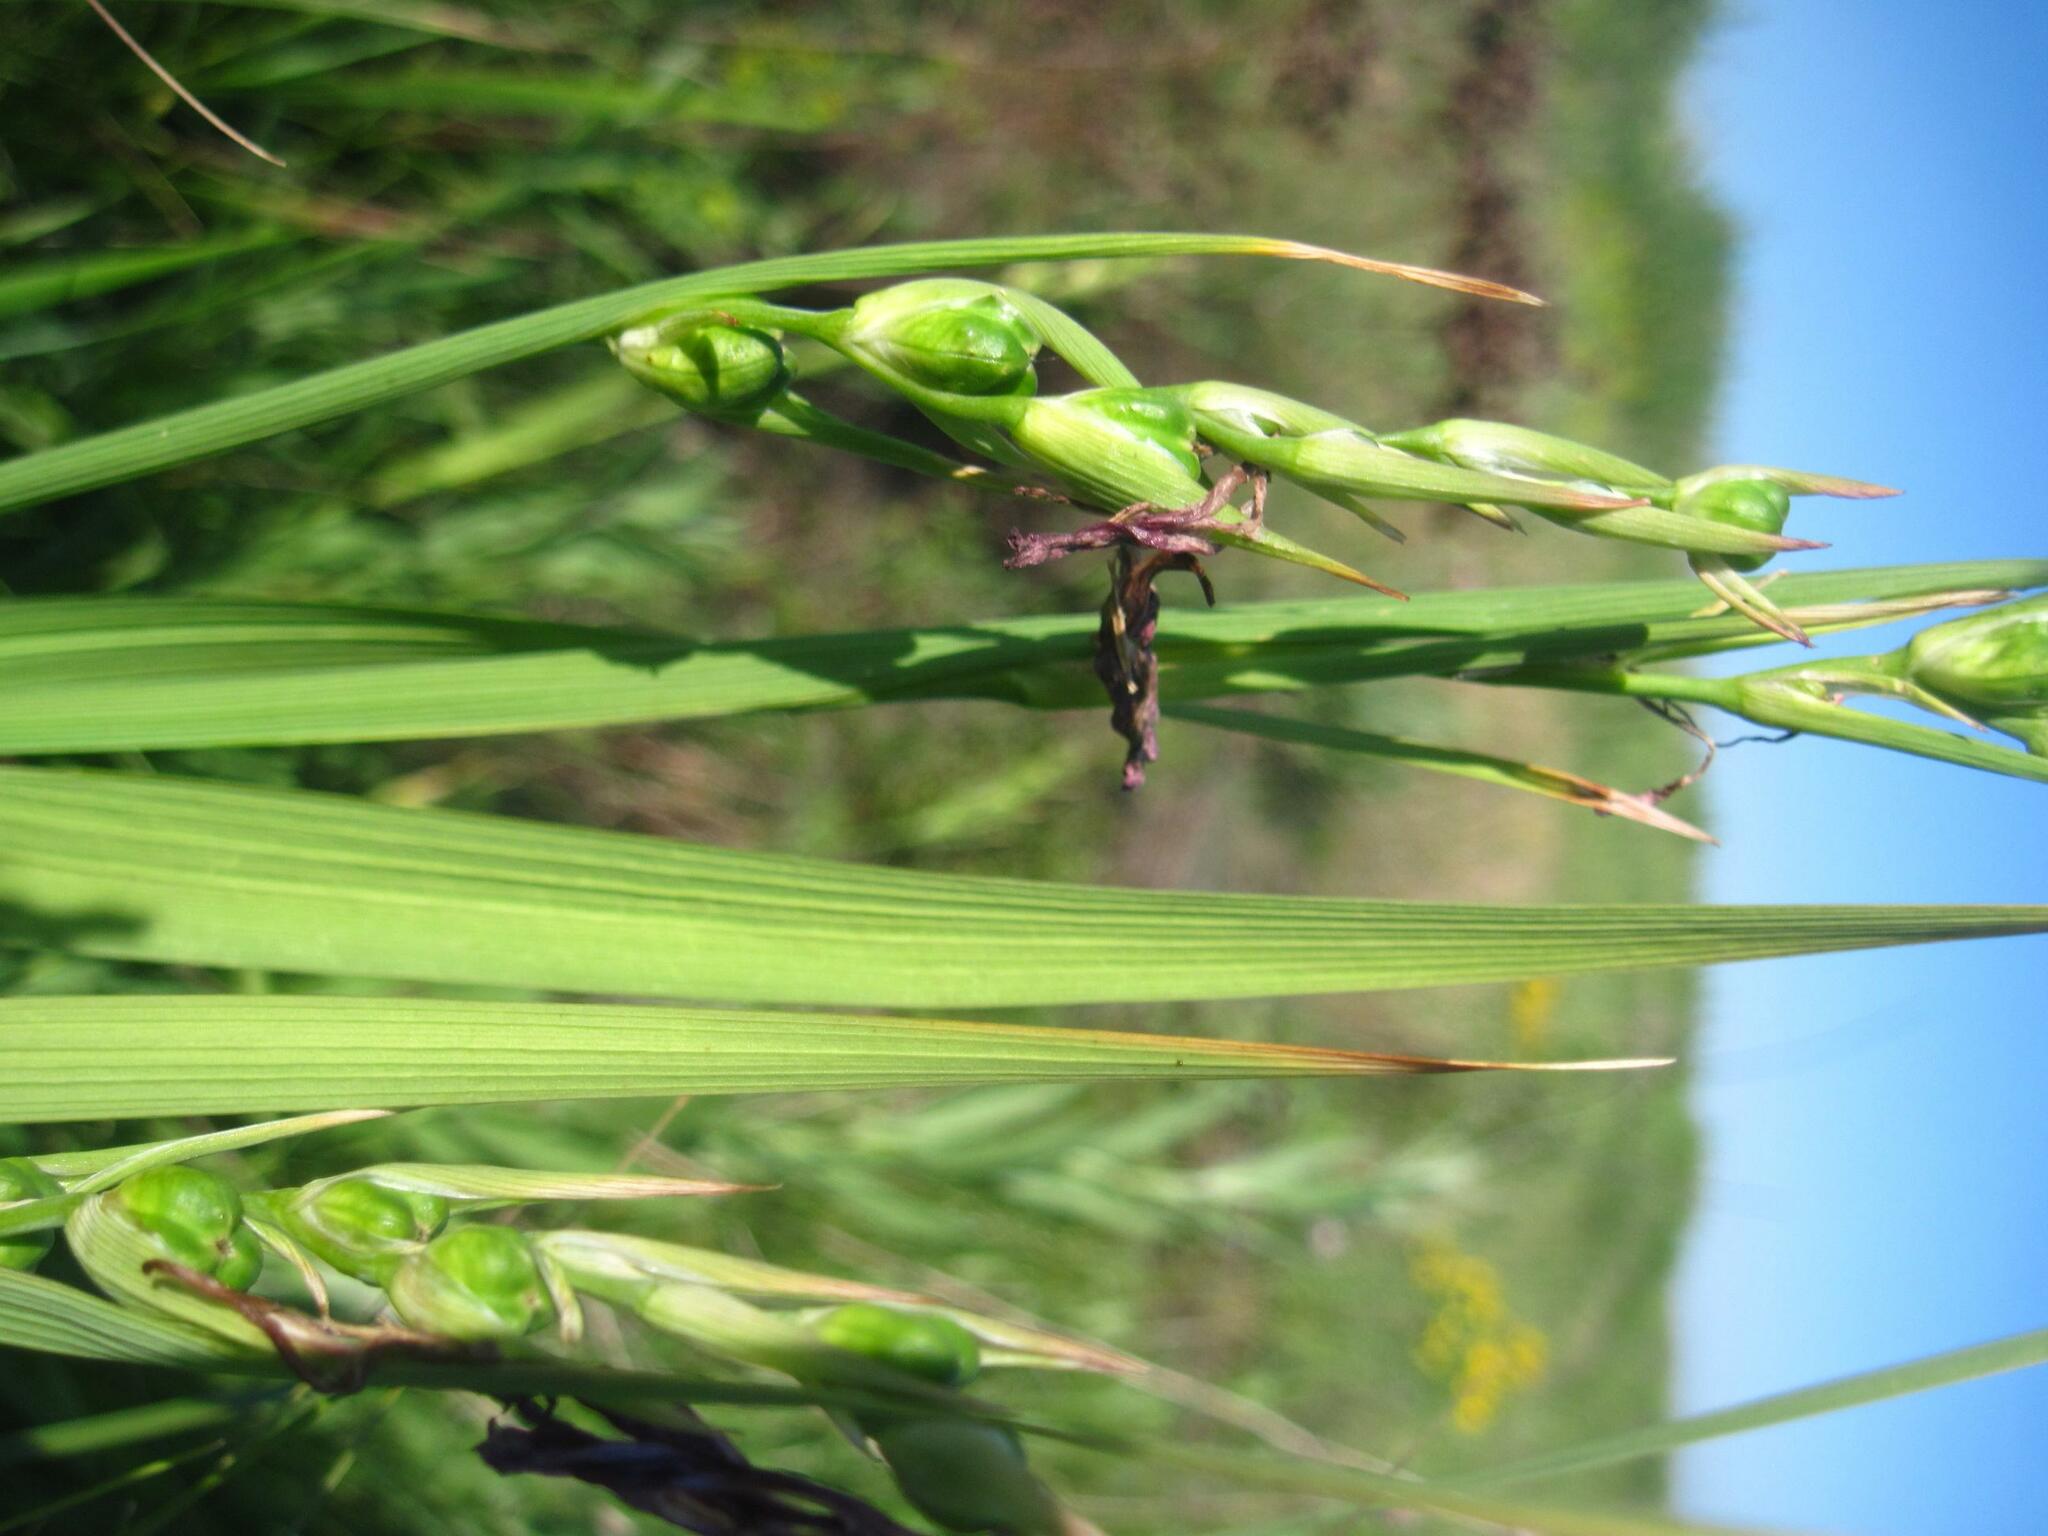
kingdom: Plantae
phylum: Tracheophyta
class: Liliopsida
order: Asparagales
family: Iridaceae
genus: Gladiolus
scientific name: Gladiolus tenuis
